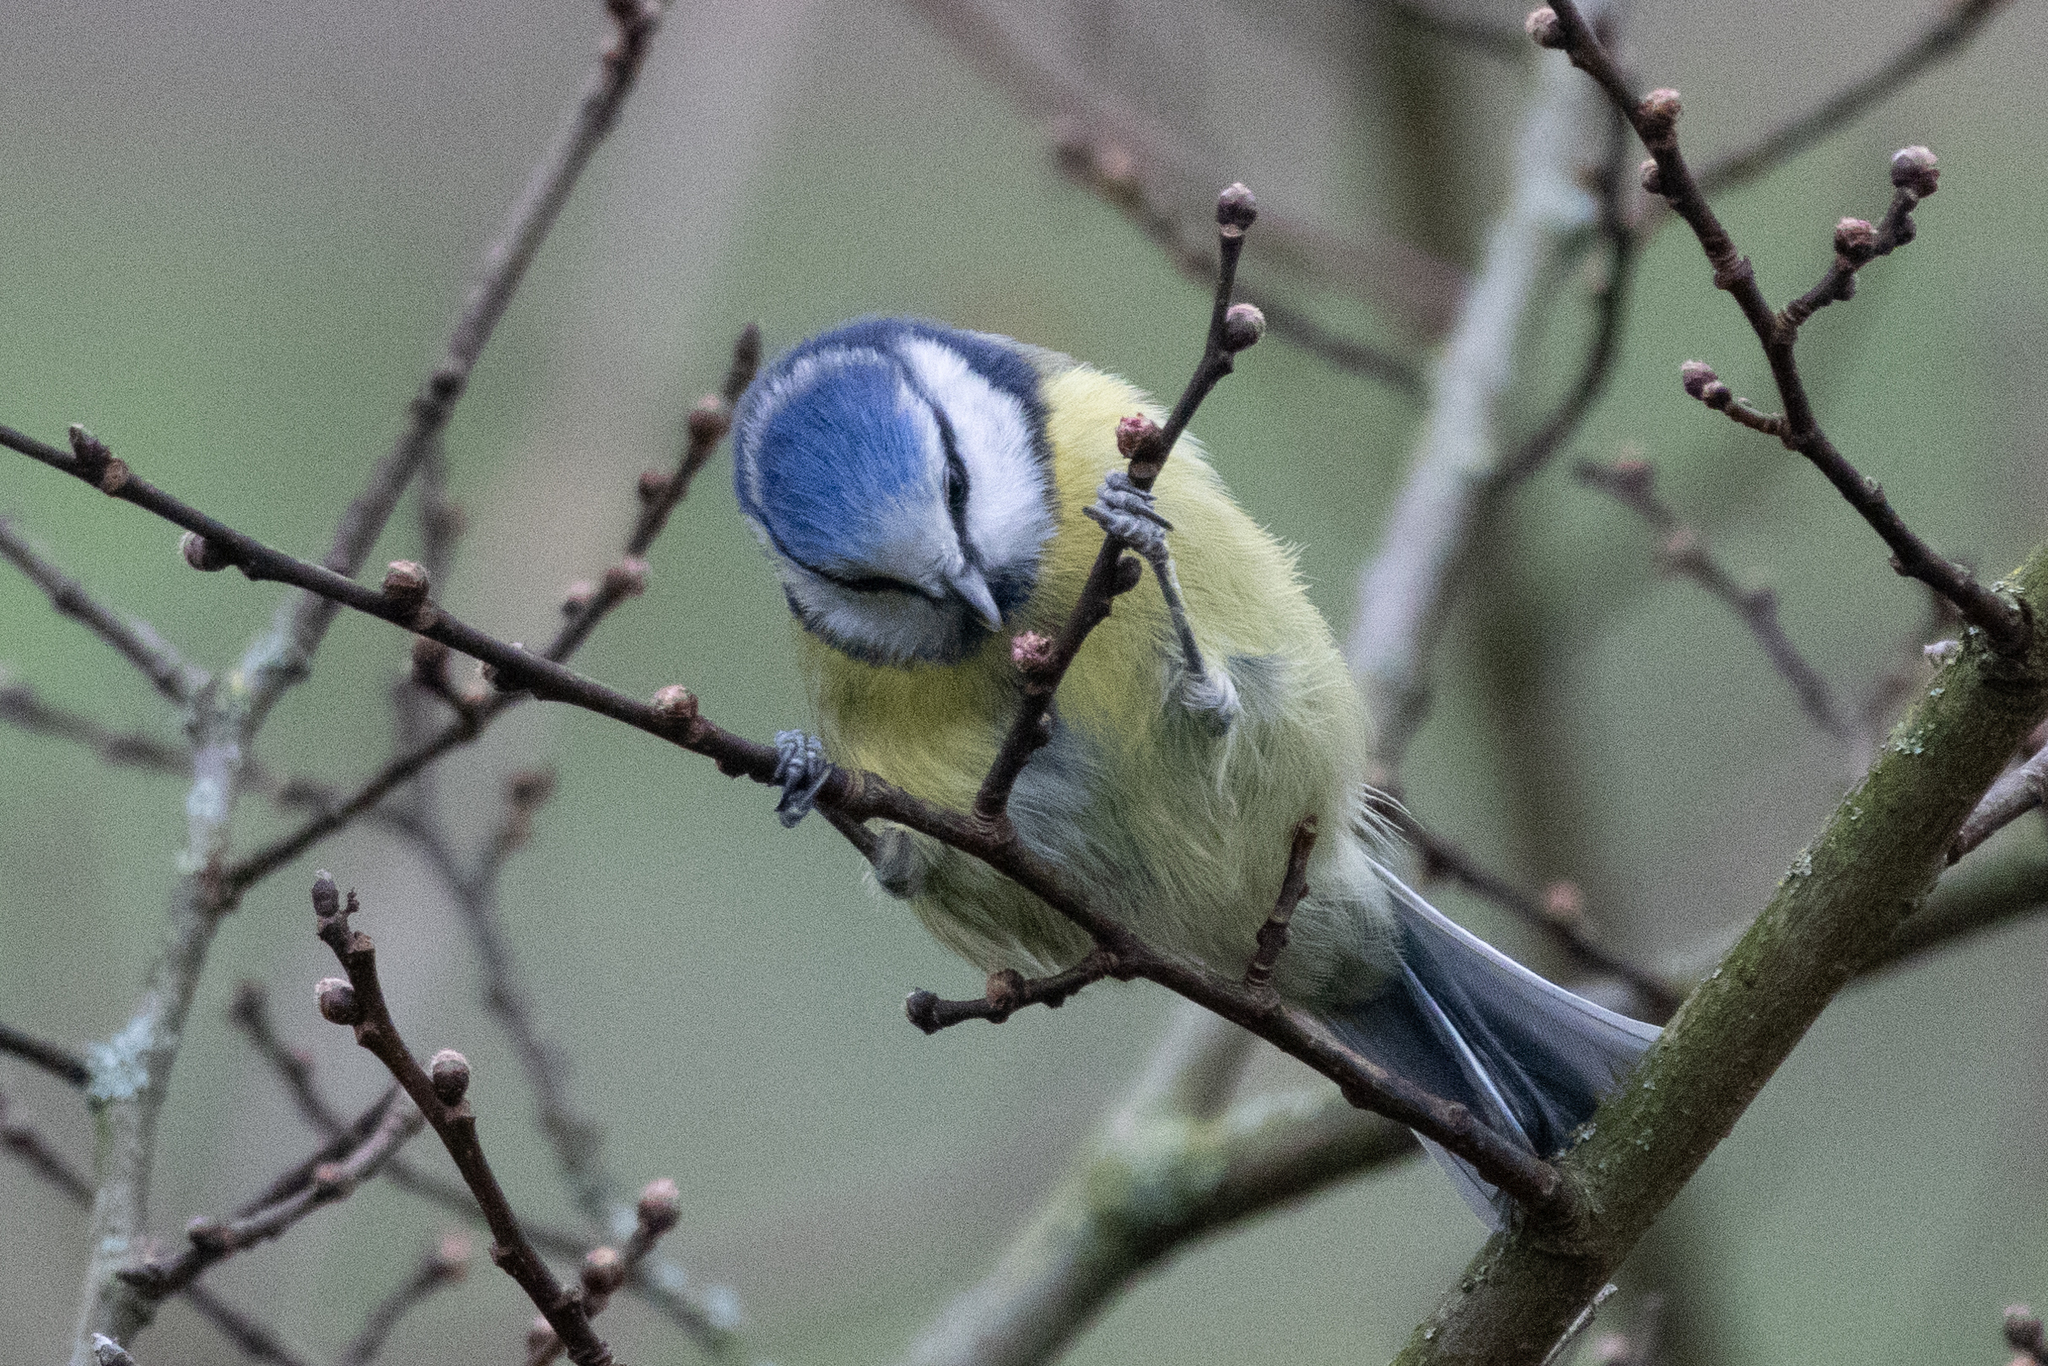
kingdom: Animalia
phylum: Chordata
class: Aves
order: Passeriformes
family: Paridae
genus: Cyanistes
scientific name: Cyanistes caeruleus
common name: Eurasian blue tit
